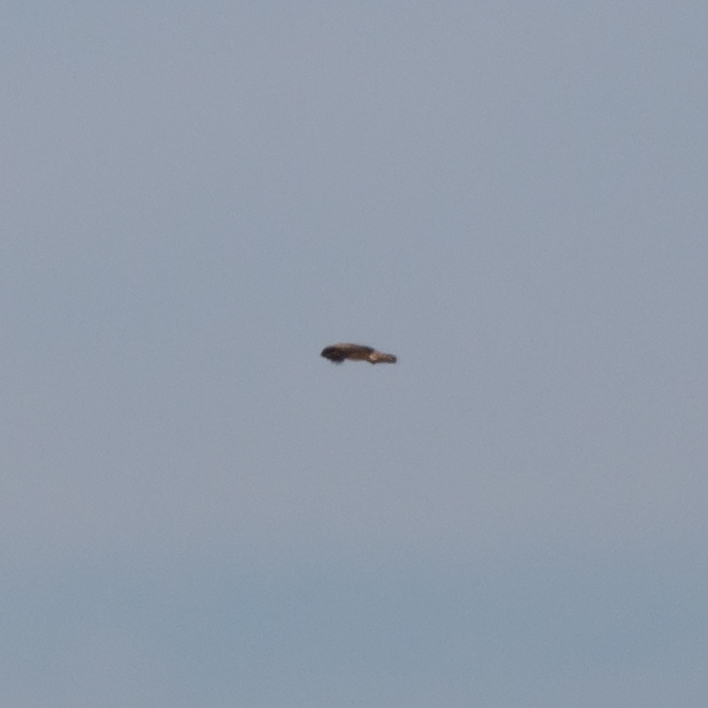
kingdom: Animalia
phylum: Chordata
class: Aves
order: Accipitriformes
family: Accipitridae
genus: Circaetus
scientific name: Circaetus gallicus
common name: Short-toed snake eagle
